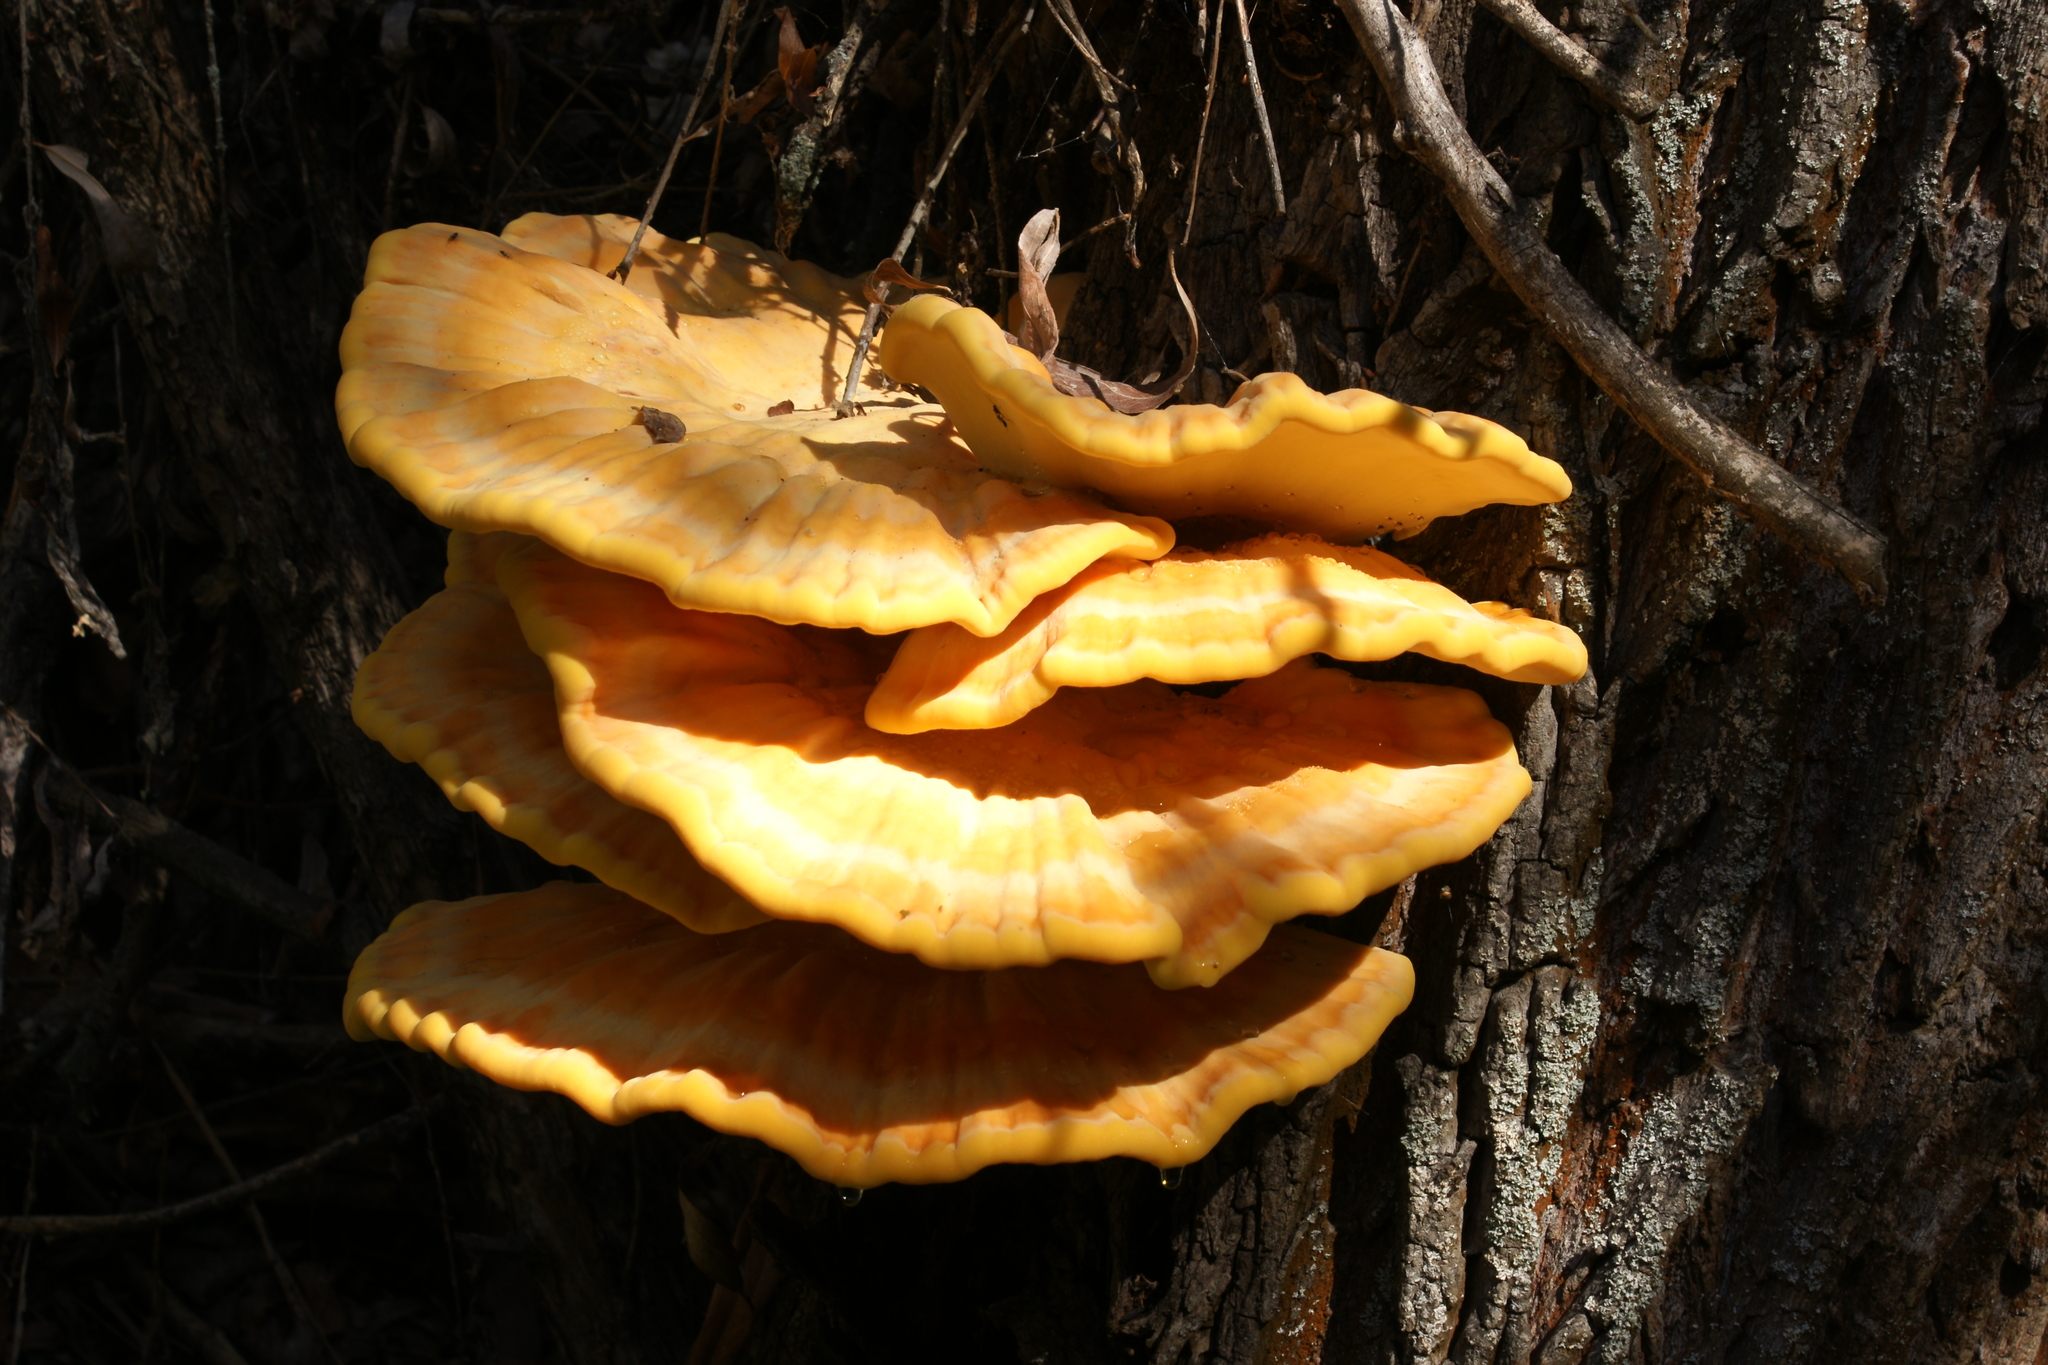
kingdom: Fungi
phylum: Basidiomycota
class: Agaricomycetes
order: Polyporales
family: Laetiporaceae
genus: Laetiporus
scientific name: Laetiporus sulphureus
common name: Chicken of the woods
